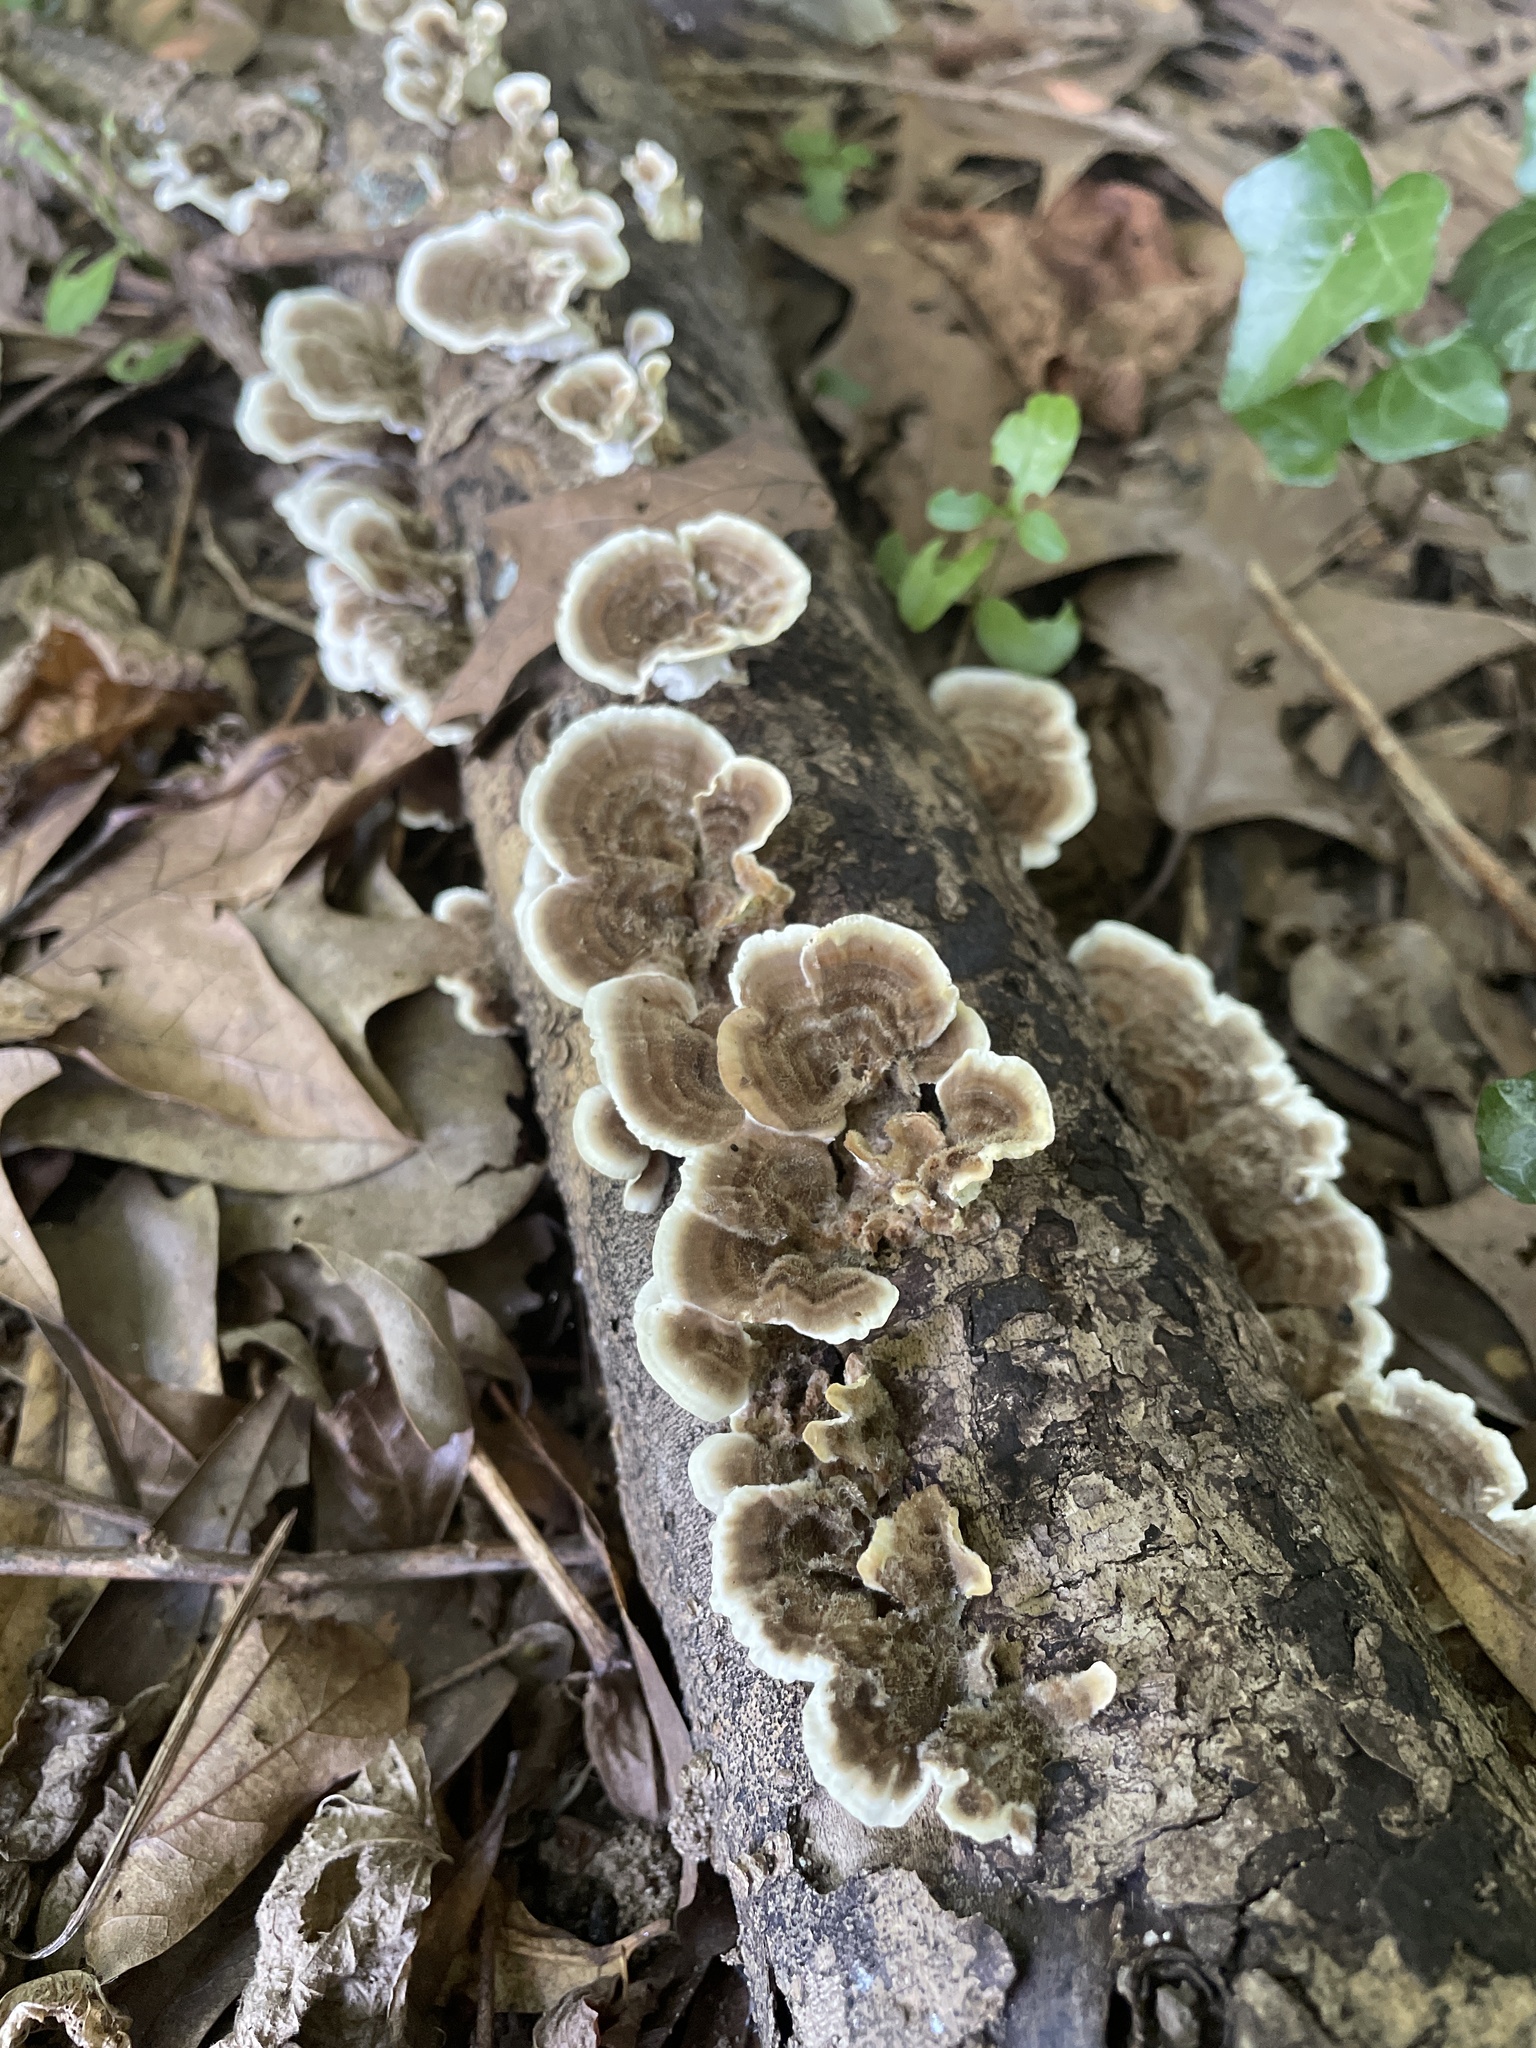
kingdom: Fungi
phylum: Basidiomycota
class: Agaricomycetes
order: Polyporales
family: Polyporaceae
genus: Trametes
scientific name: Trametes versicolor
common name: Turkeytail
